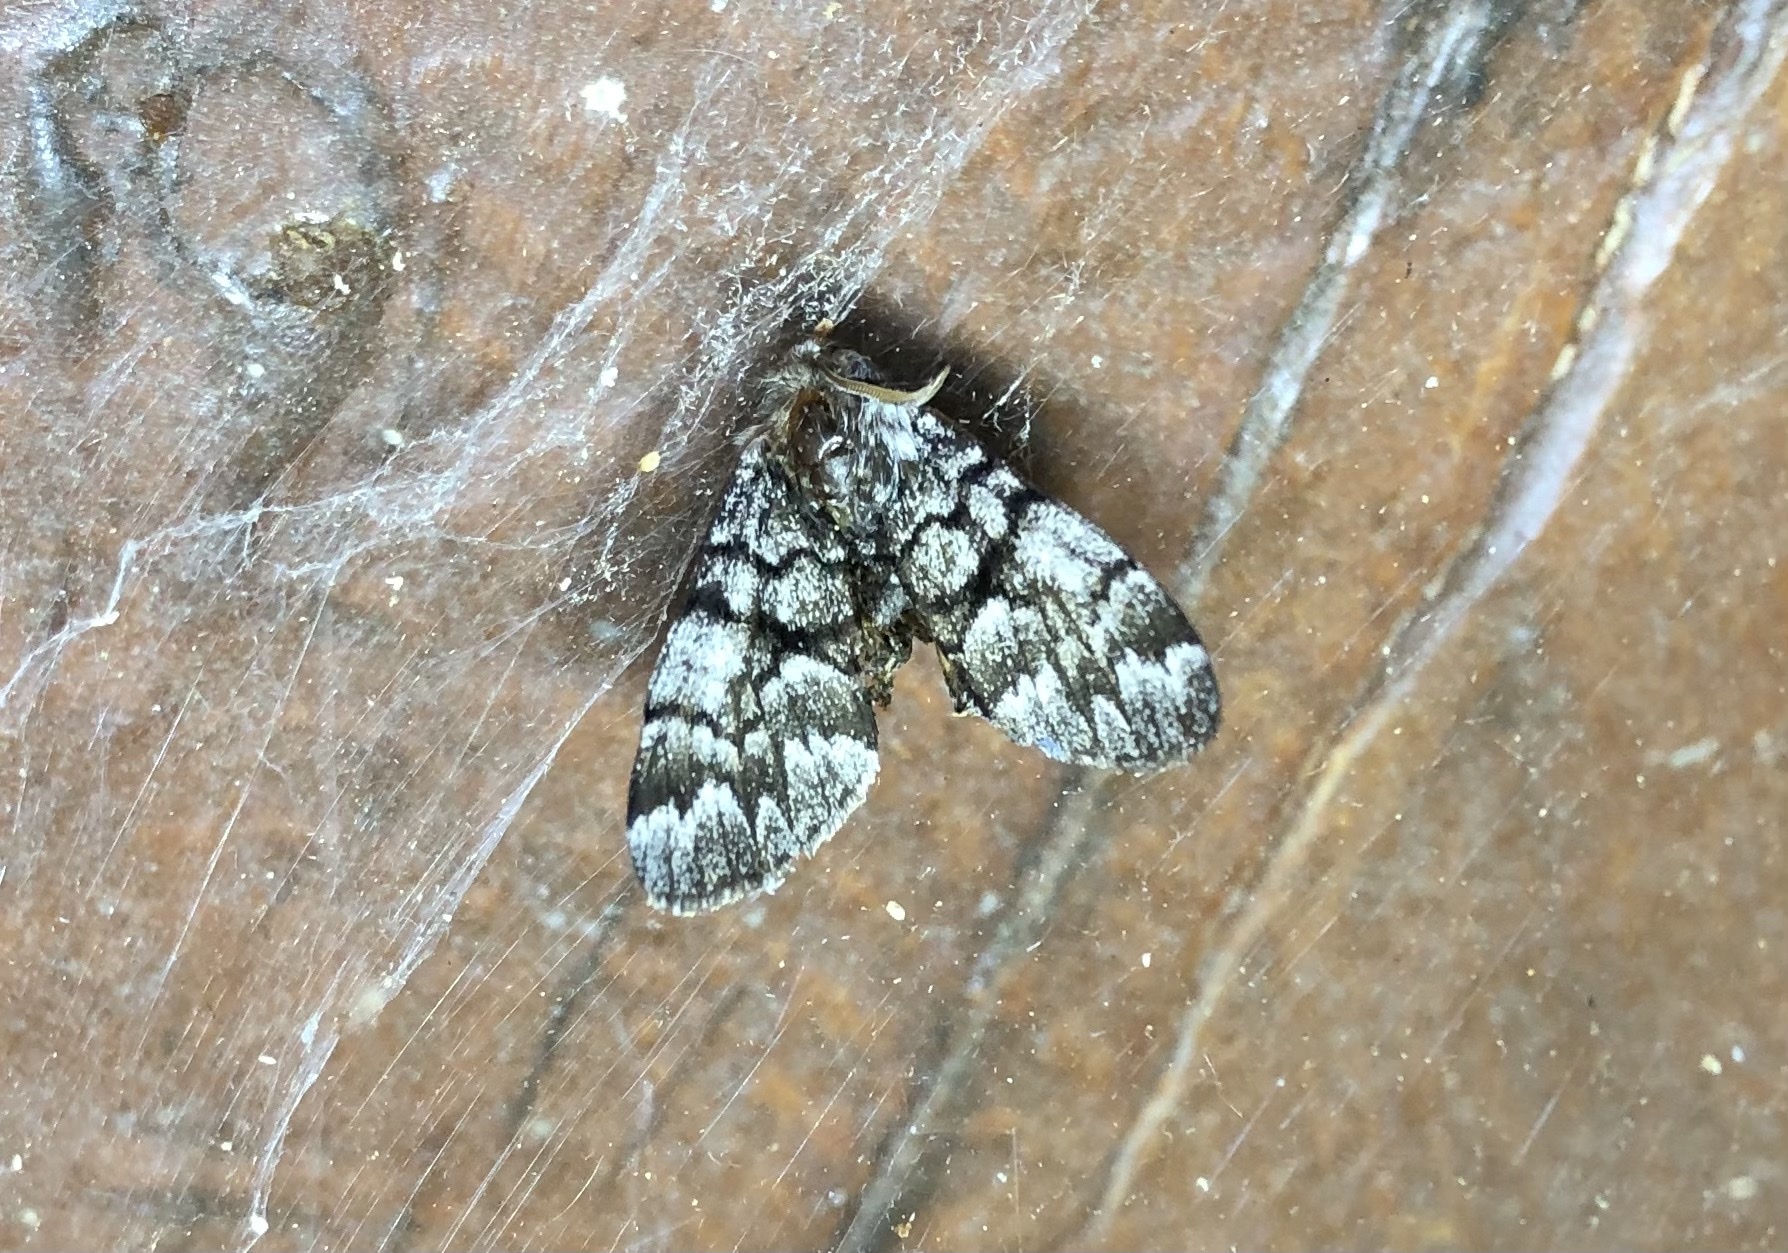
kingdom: Animalia
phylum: Arthropoda
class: Insecta
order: Lepidoptera
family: Noctuidae
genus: Panthea
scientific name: Panthea furcilla
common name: Eastern panthea moth
